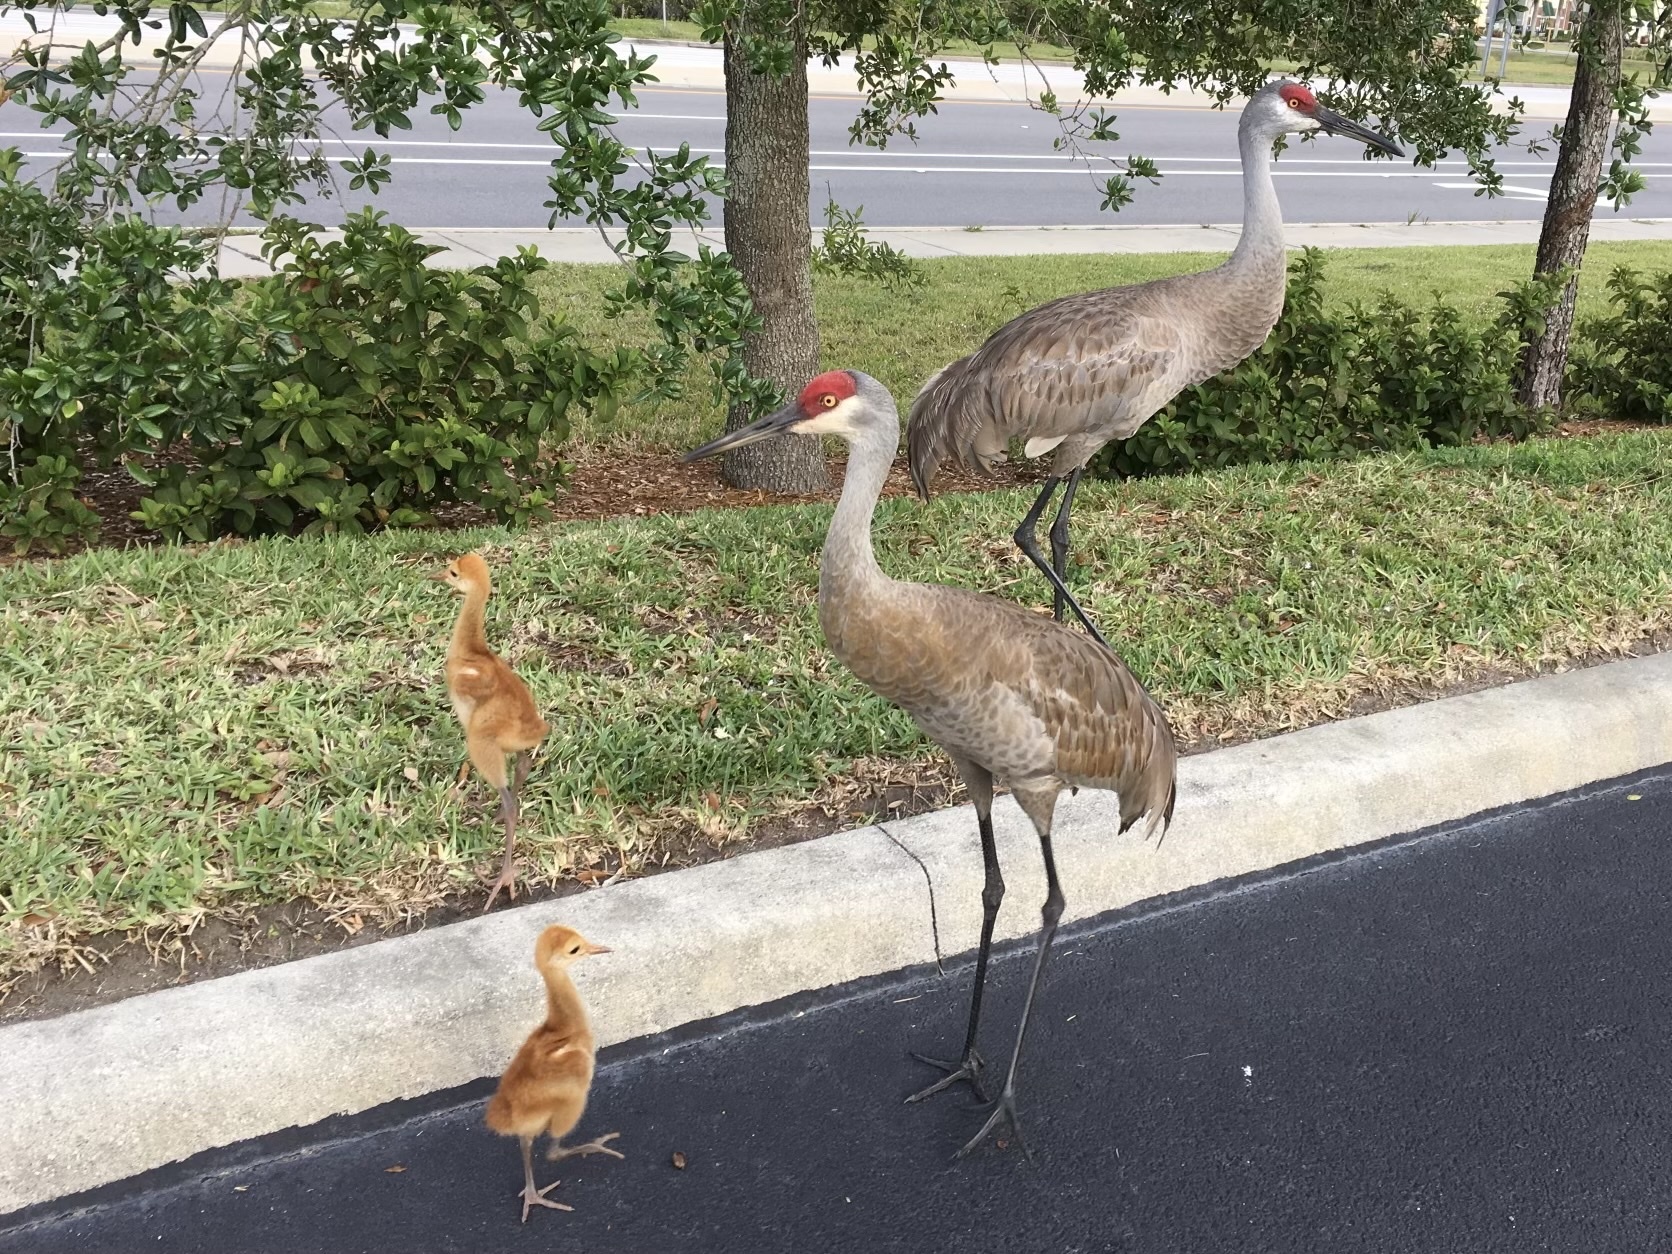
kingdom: Animalia
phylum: Chordata
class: Aves
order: Gruiformes
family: Gruidae
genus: Grus
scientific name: Grus canadensis
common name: Sandhill crane
